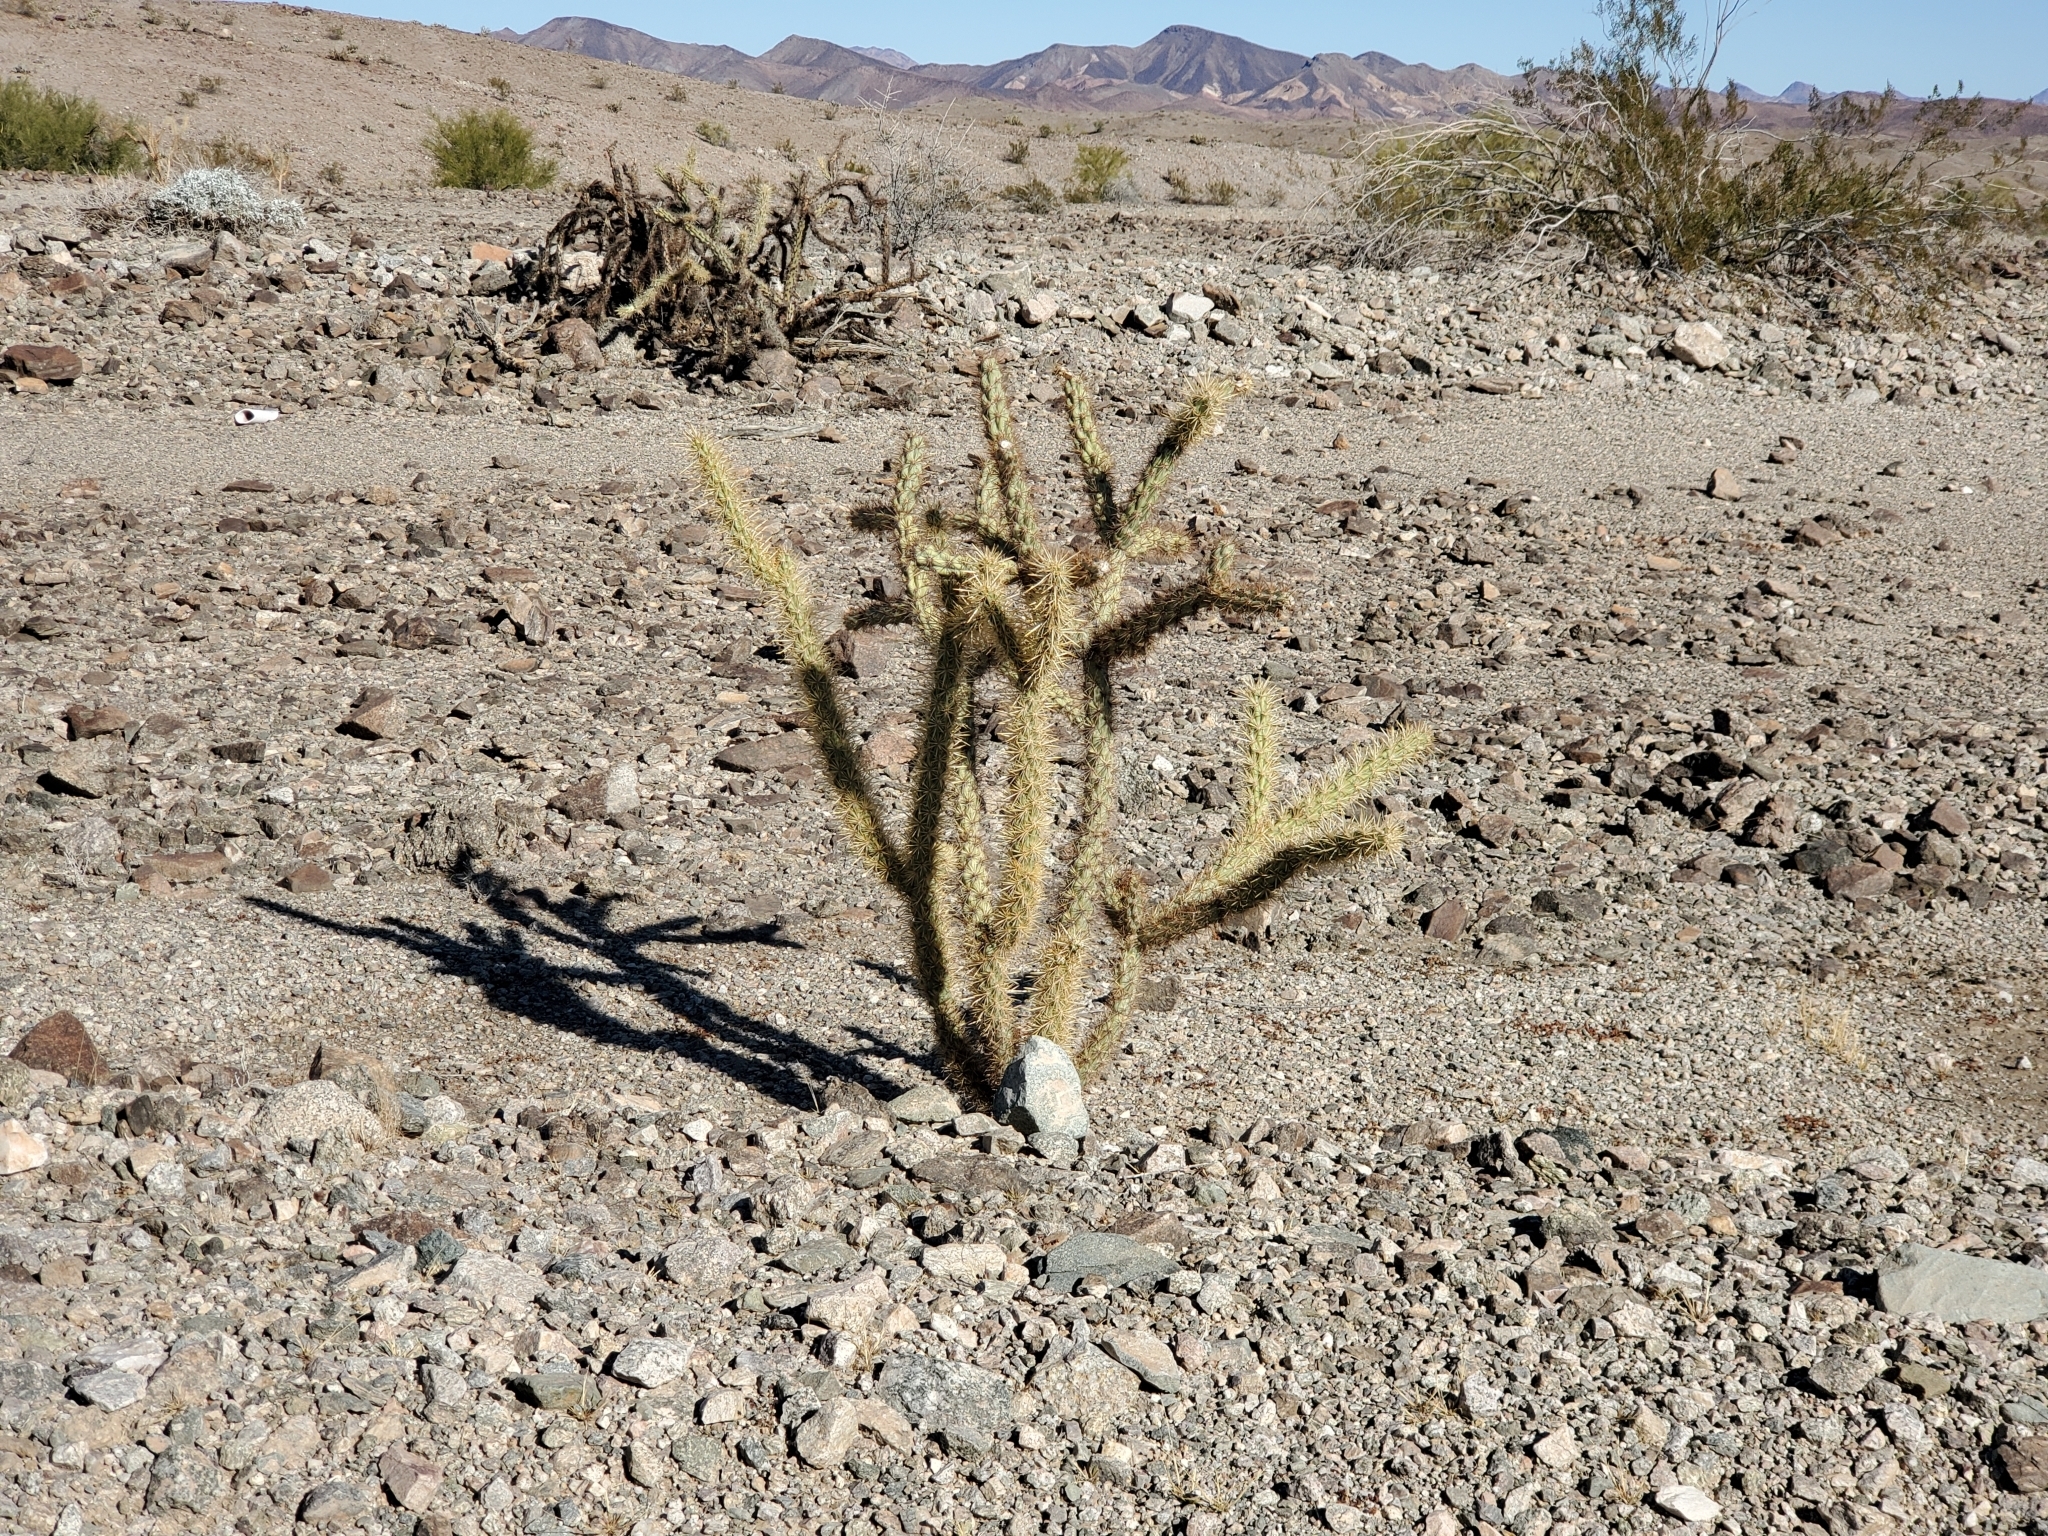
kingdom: Plantae
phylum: Tracheophyta
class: Magnoliopsida
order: Caryophyllales
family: Cactaceae
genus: Cylindropuntia
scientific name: Cylindropuntia acanthocarpa
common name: Buckhorn cholla
